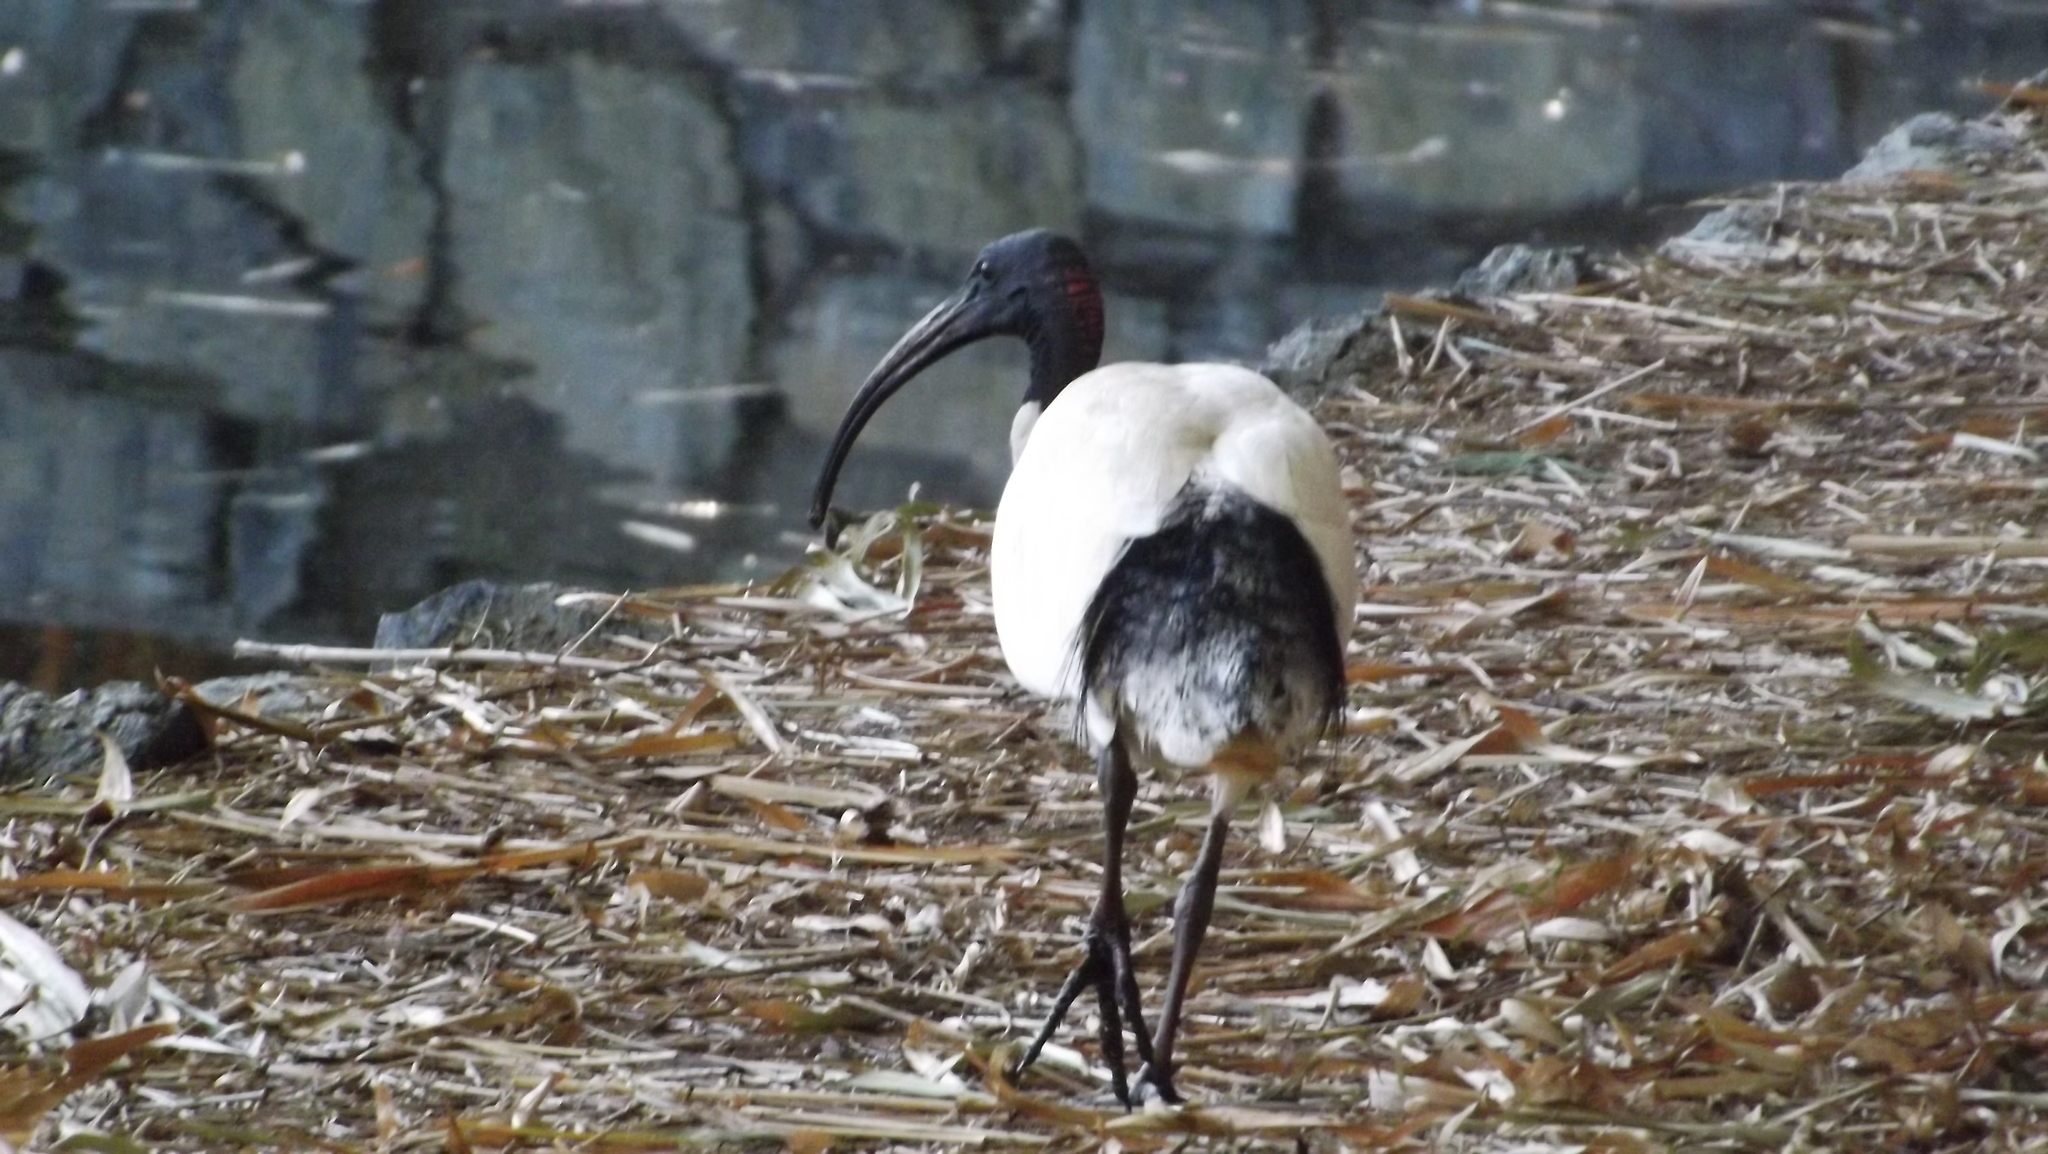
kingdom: Animalia
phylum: Chordata
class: Aves
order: Pelecaniformes
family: Threskiornithidae
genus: Threskiornis
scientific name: Threskiornis molucca
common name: Australian white ibis
